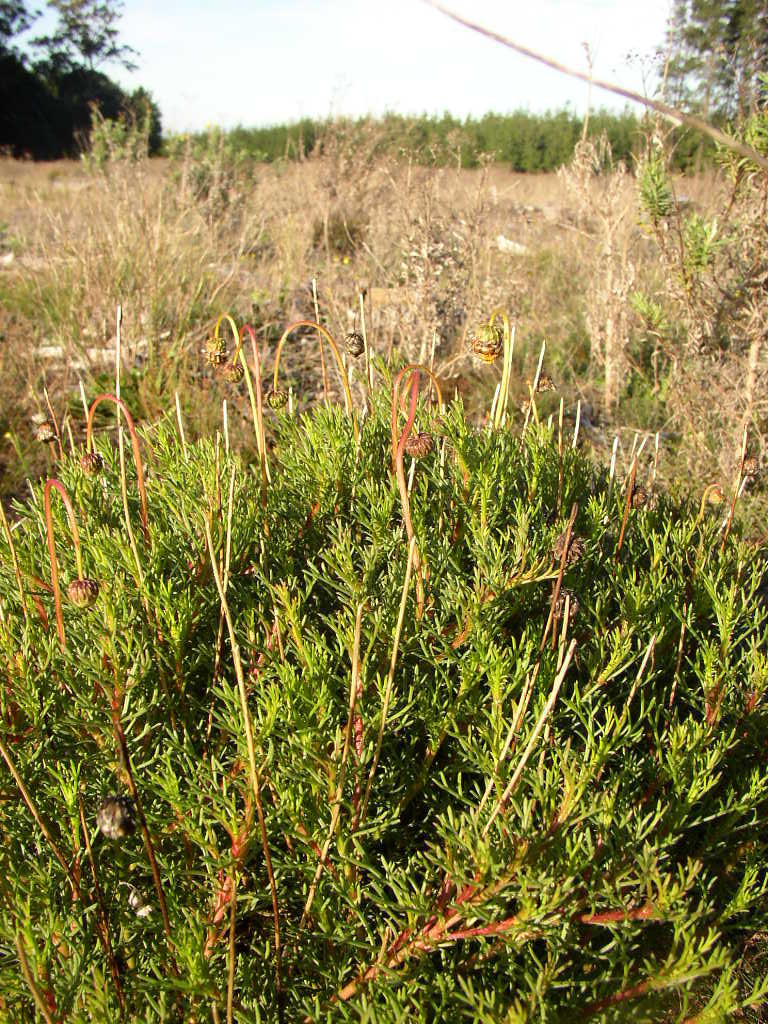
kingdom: Plantae
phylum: Tracheophyta
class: Magnoliopsida
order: Asterales
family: Asteraceae
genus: Ursinia
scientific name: Ursinia paleacea
